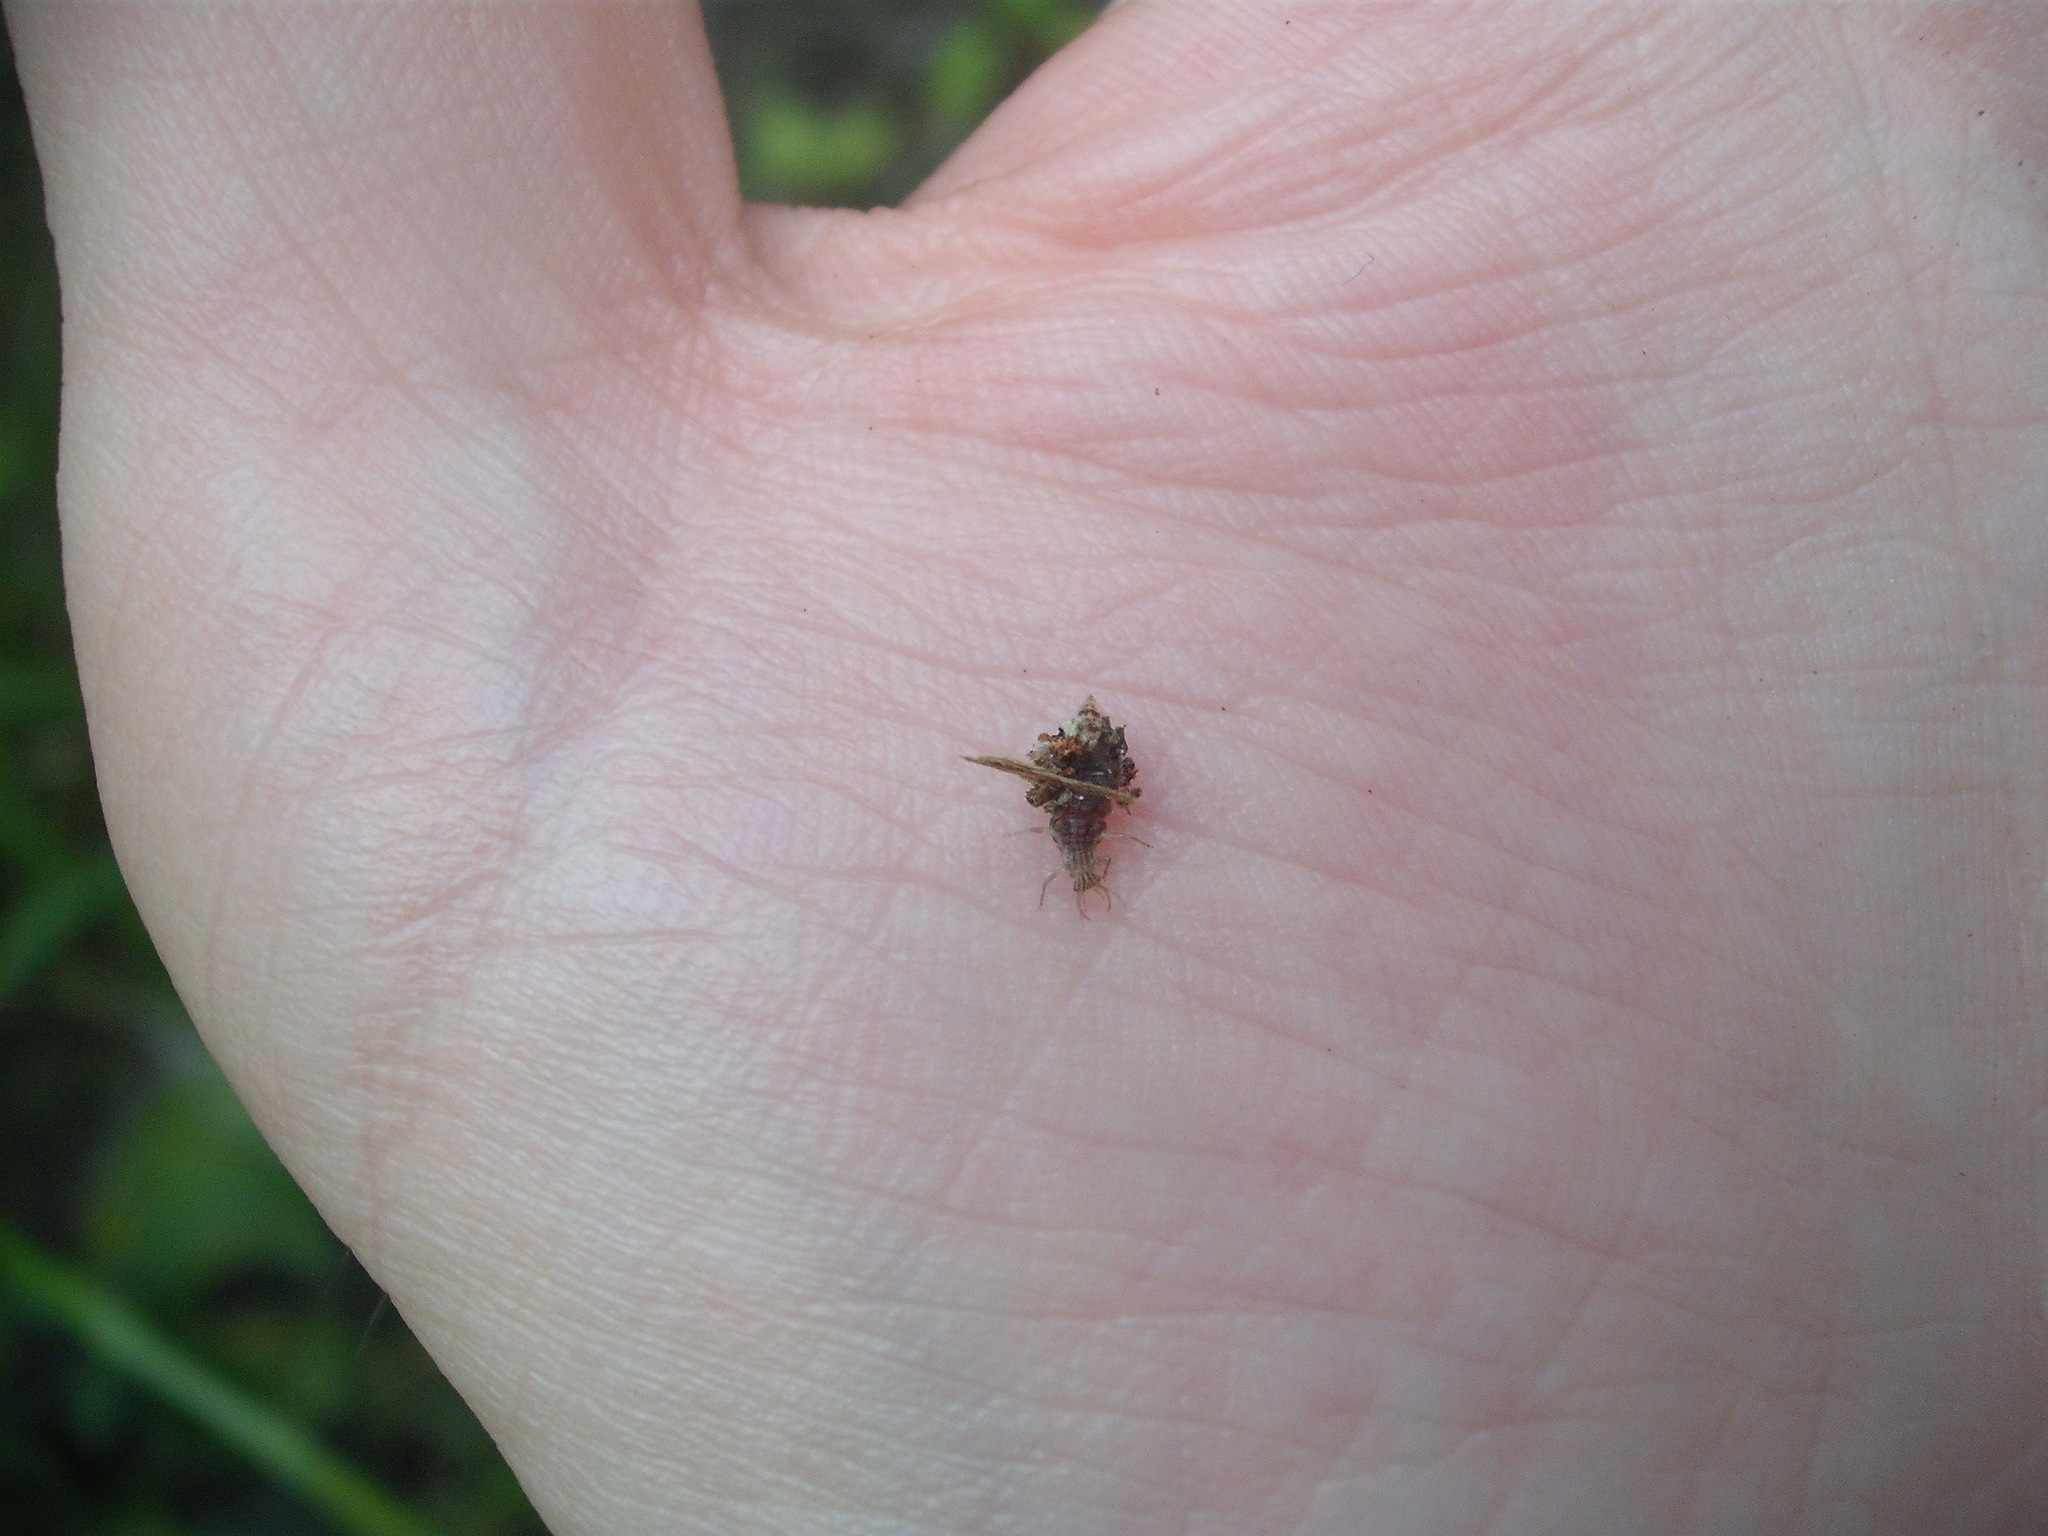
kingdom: Animalia
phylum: Arthropoda
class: Insecta
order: Neuroptera
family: Chrysopidae
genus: Mallada
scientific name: Mallada basalis
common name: Green lacewing
